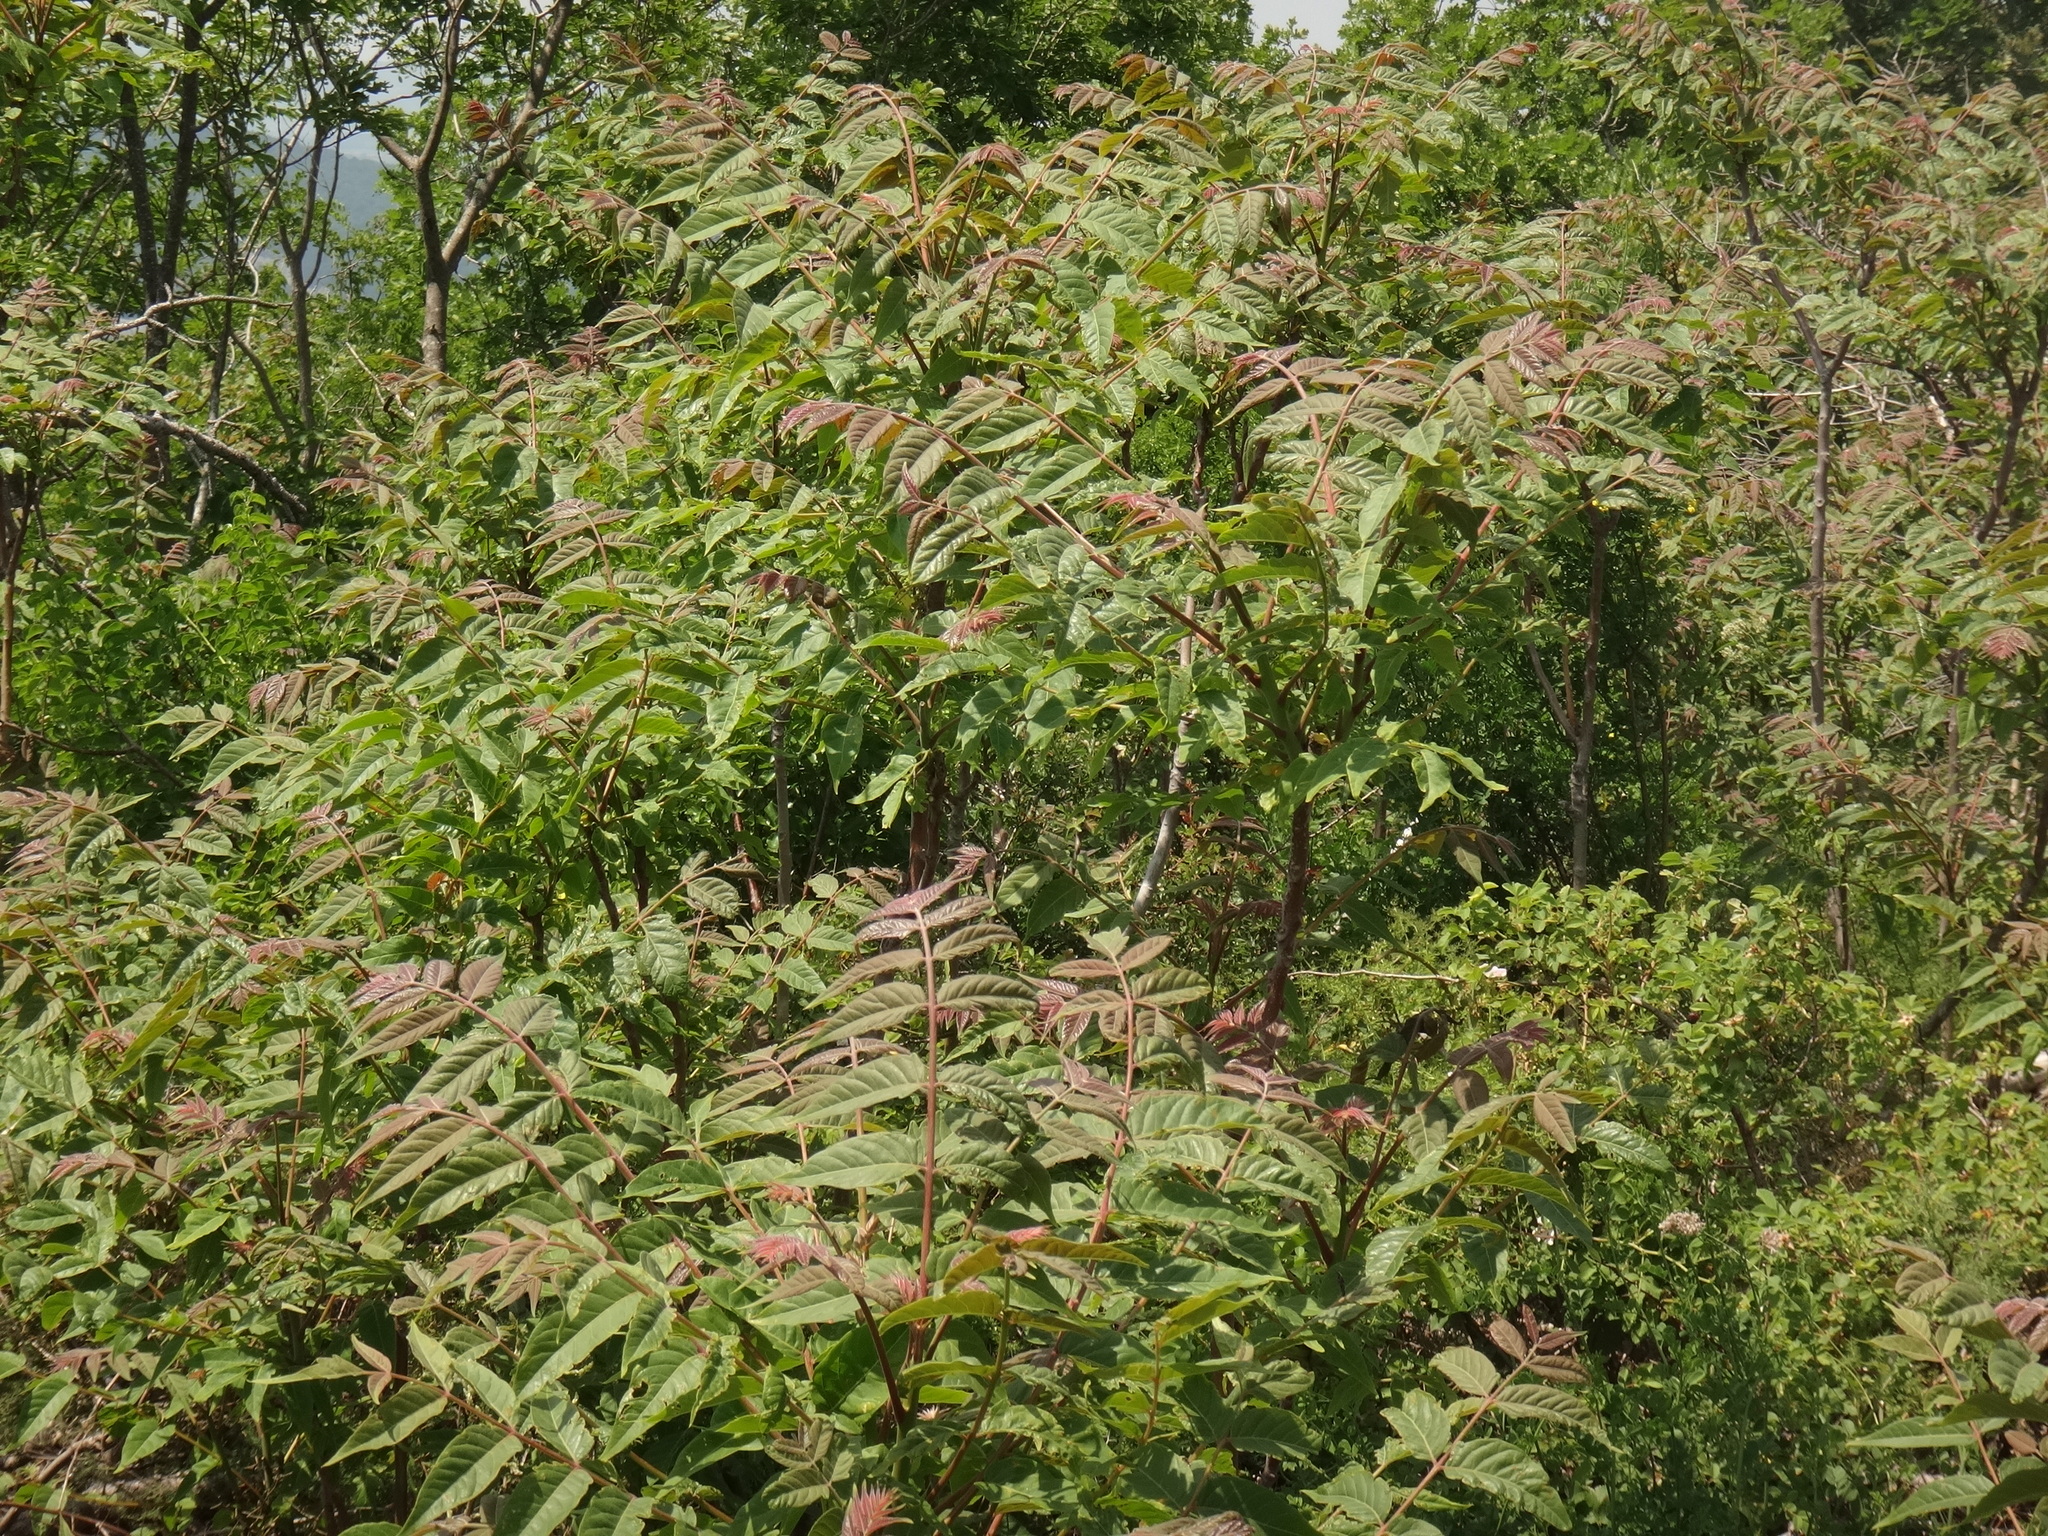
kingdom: Plantae
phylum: Tracheophyta
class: Magnoliopsida
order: Sapindales
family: Simaroubaceae
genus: Ailanthus
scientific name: Ailanthus altissima
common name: Tree-of-heaven
